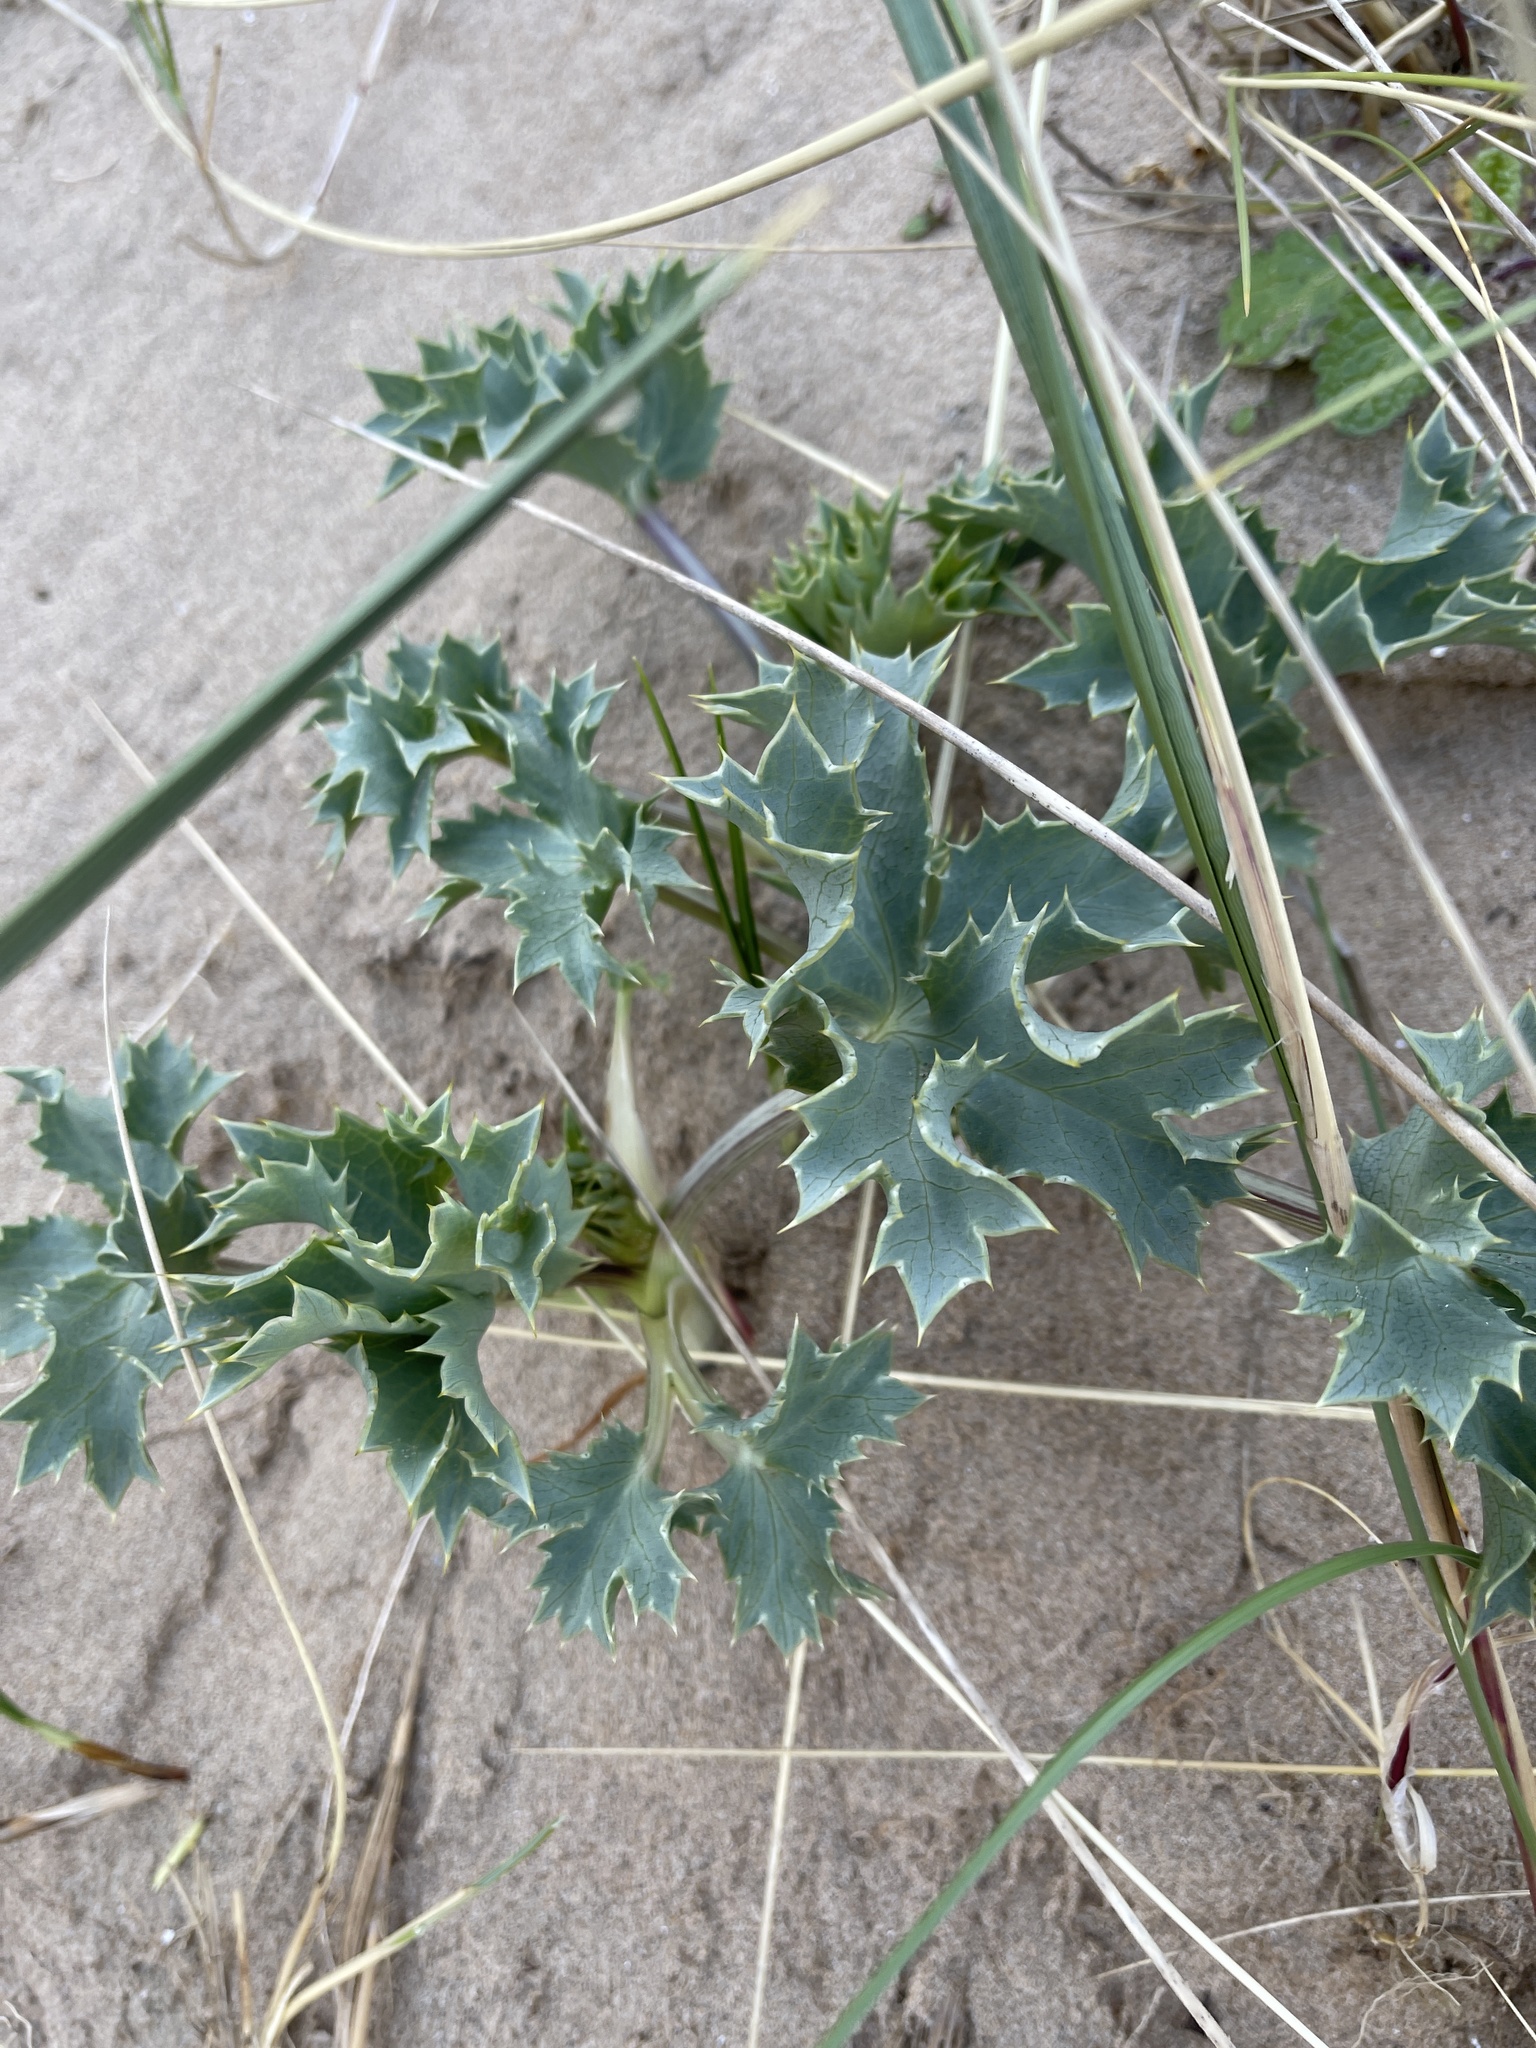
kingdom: Plantae
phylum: Tracheophyta
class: Magnoliopsida
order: Apiales
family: Apiaceae
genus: Eryngium
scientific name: Eryngium maritimum
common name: Sea-holly
